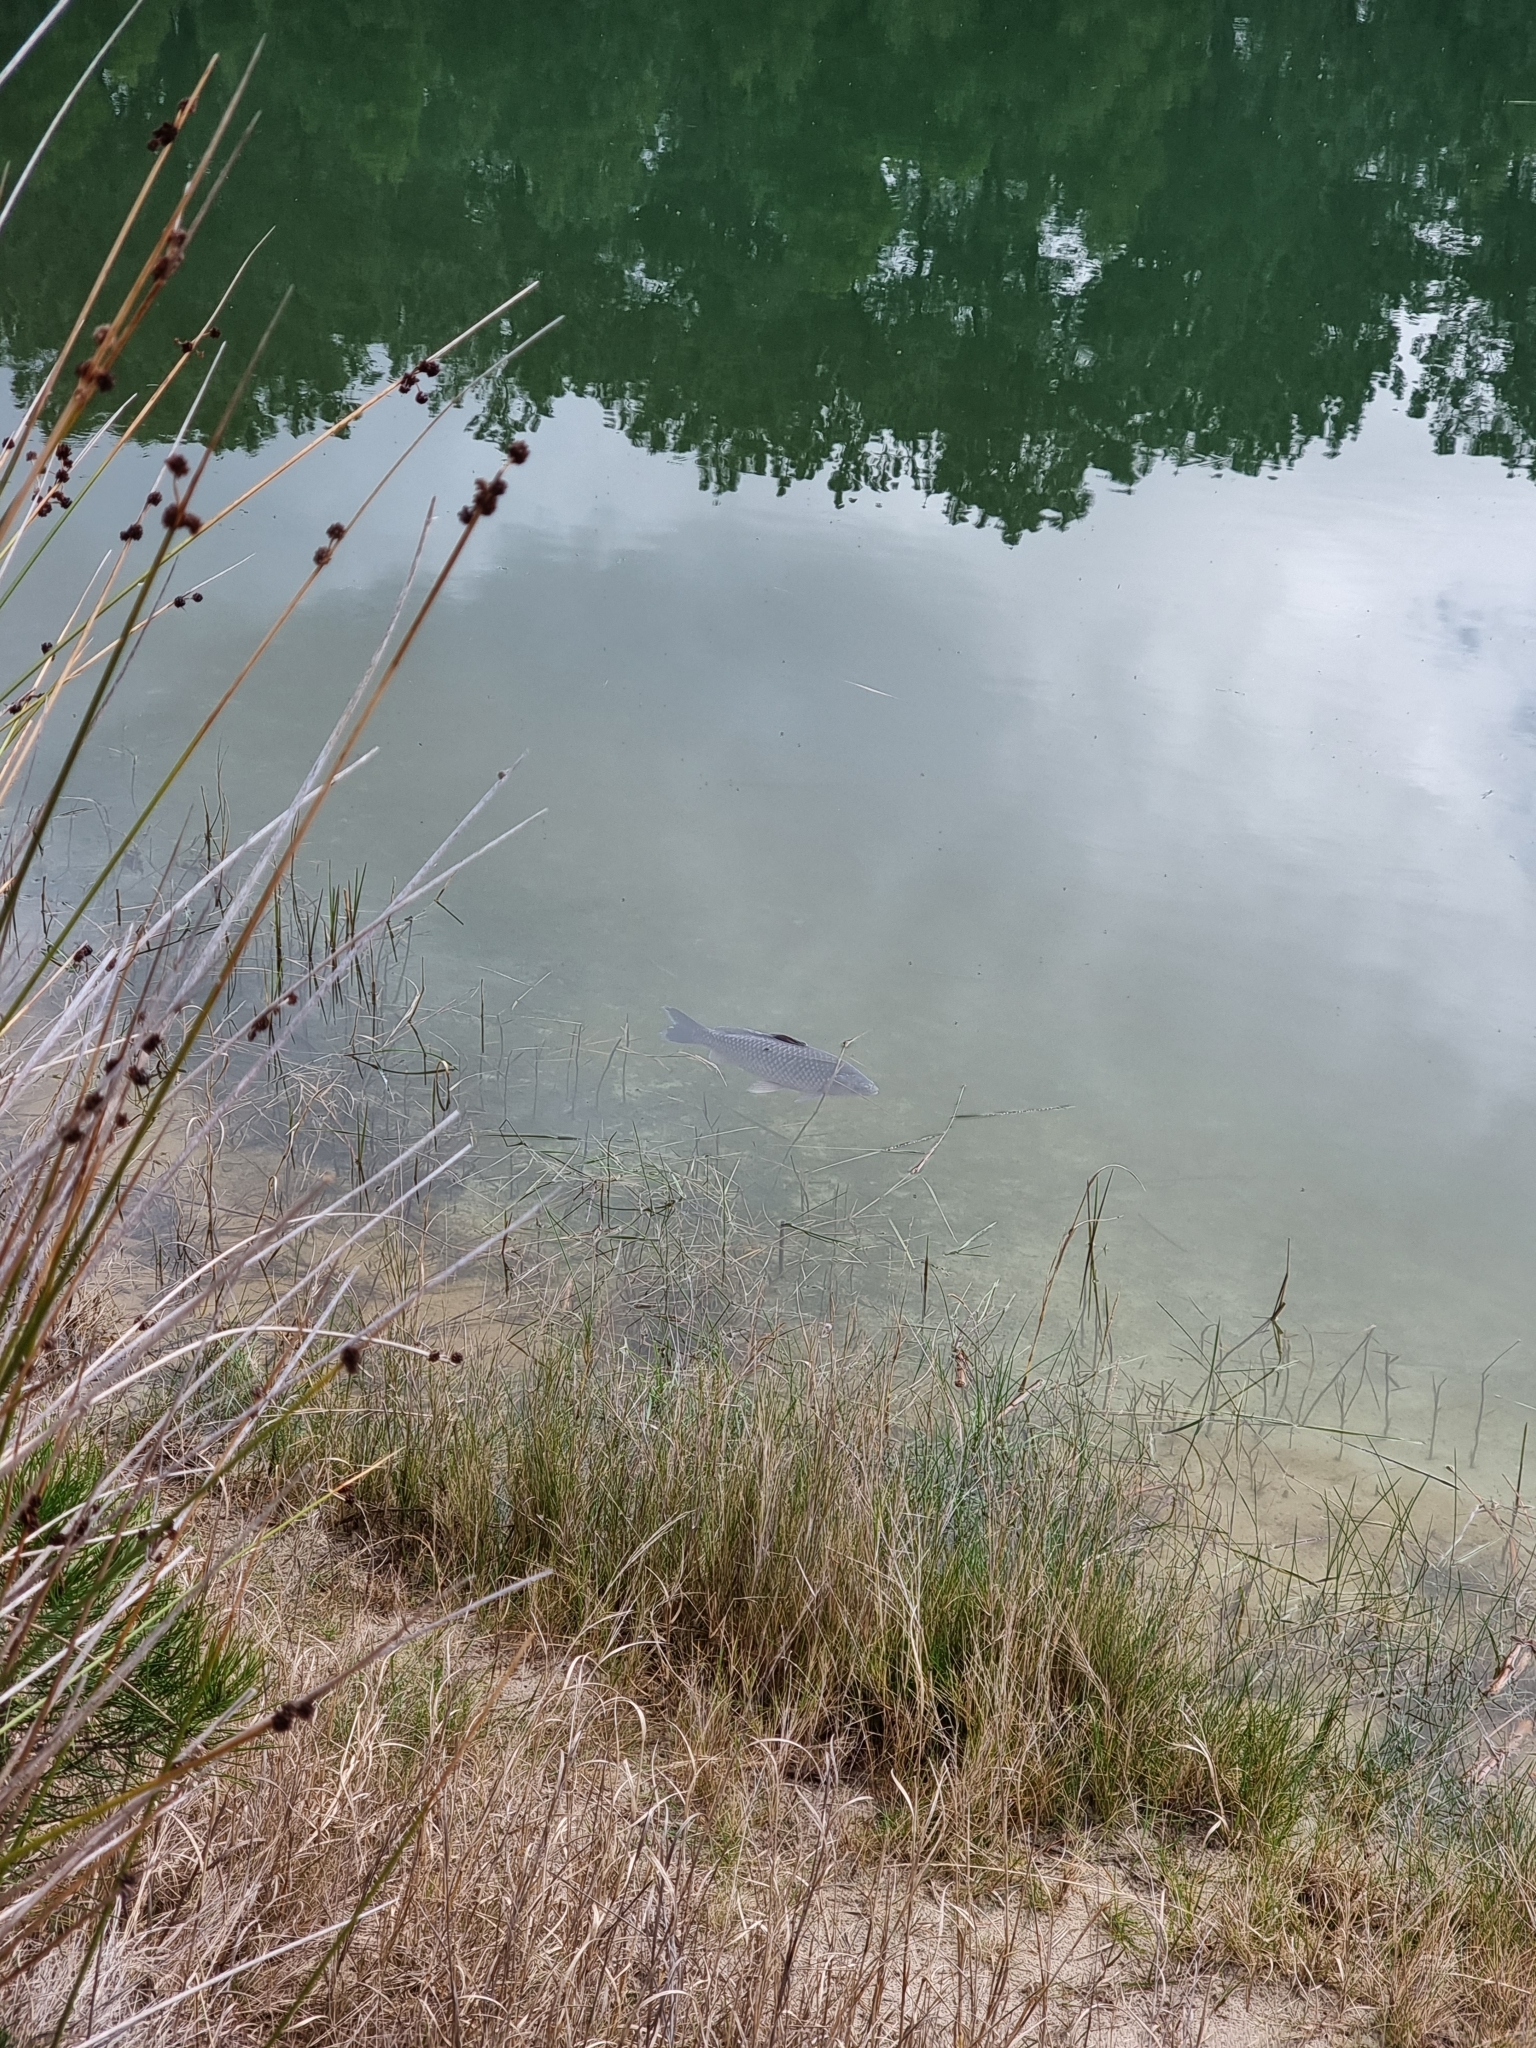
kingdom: Animalia
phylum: Chordata
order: Cypriniformes
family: Cyprinidae
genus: Cyprinus
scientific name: Cyprinus carpio
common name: Common carp
